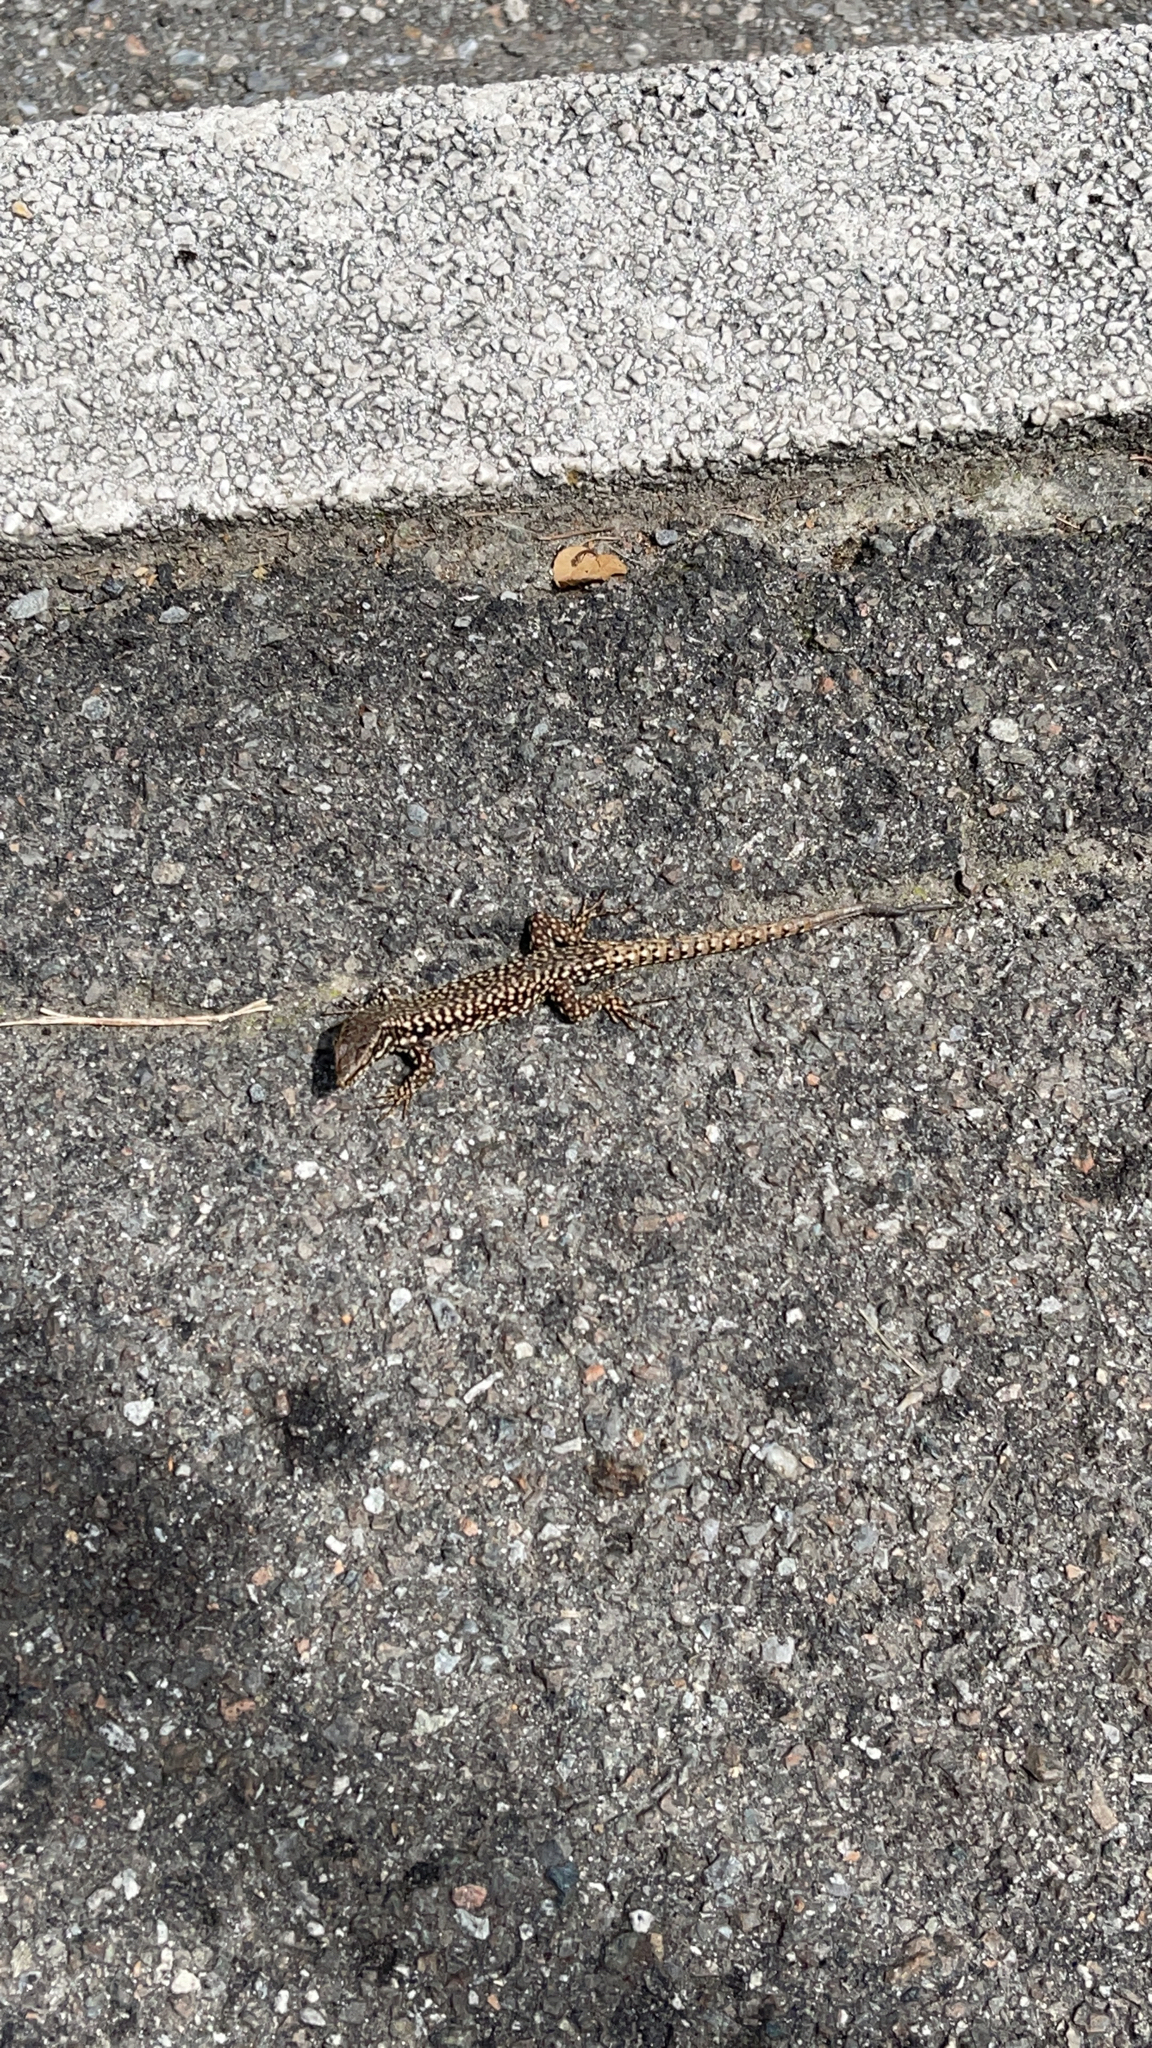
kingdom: Animalia
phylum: Chordata
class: Squamata
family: Lacertidae
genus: Podarcis
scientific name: Podarcis muralis
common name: Common wall lizard
